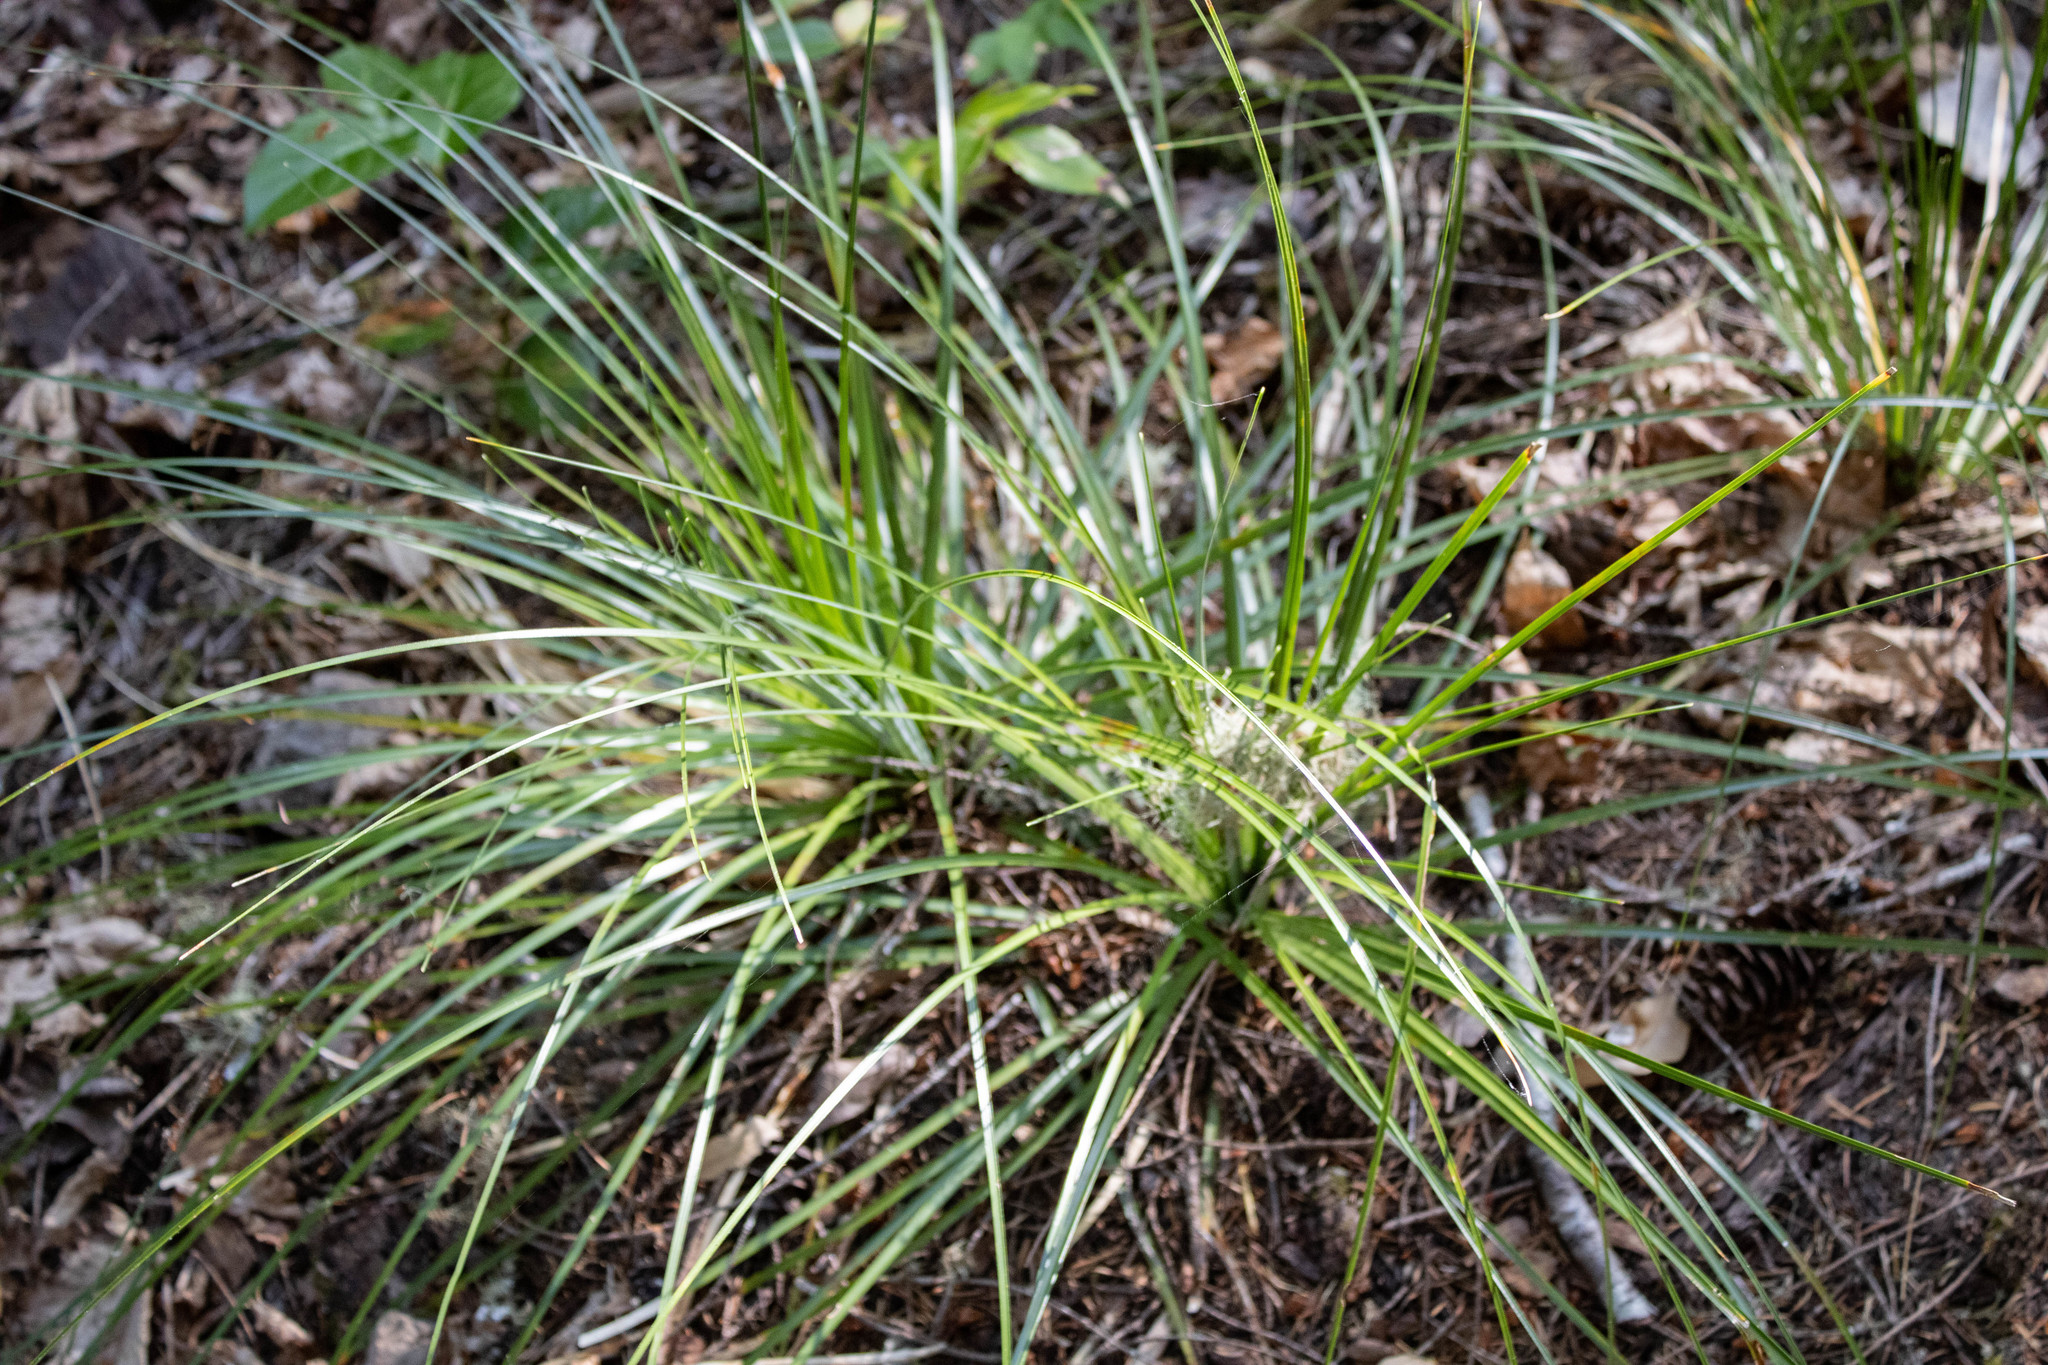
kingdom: Plantae
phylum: Tracheophyta
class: Liliopsida
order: Liliales
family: Melanthiaceae
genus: Xerophyllum
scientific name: Xerophyllum tenax
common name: Bear-grass
